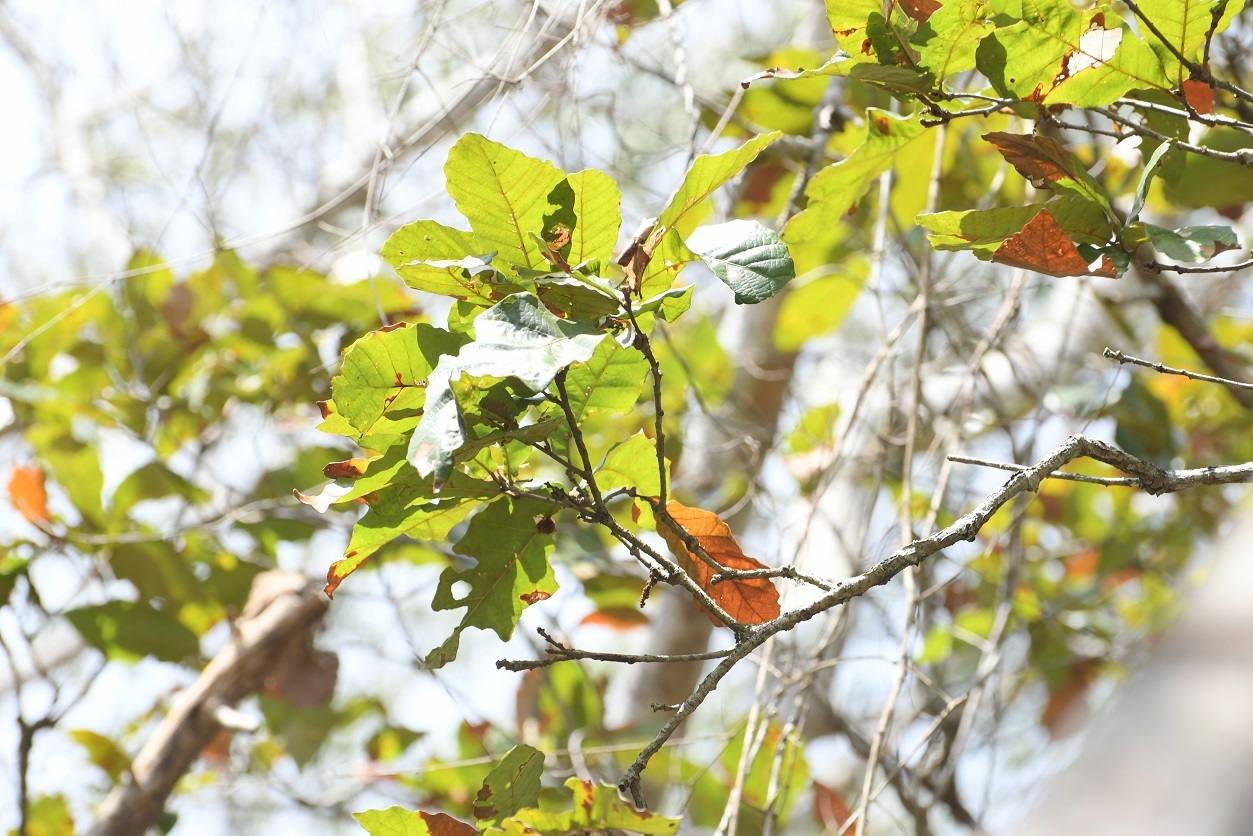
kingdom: Plantae
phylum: Tracheophyta
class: Magnoliopsida
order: Fagales
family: Fagaceae
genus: Quercus
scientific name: Quercus purulhana
